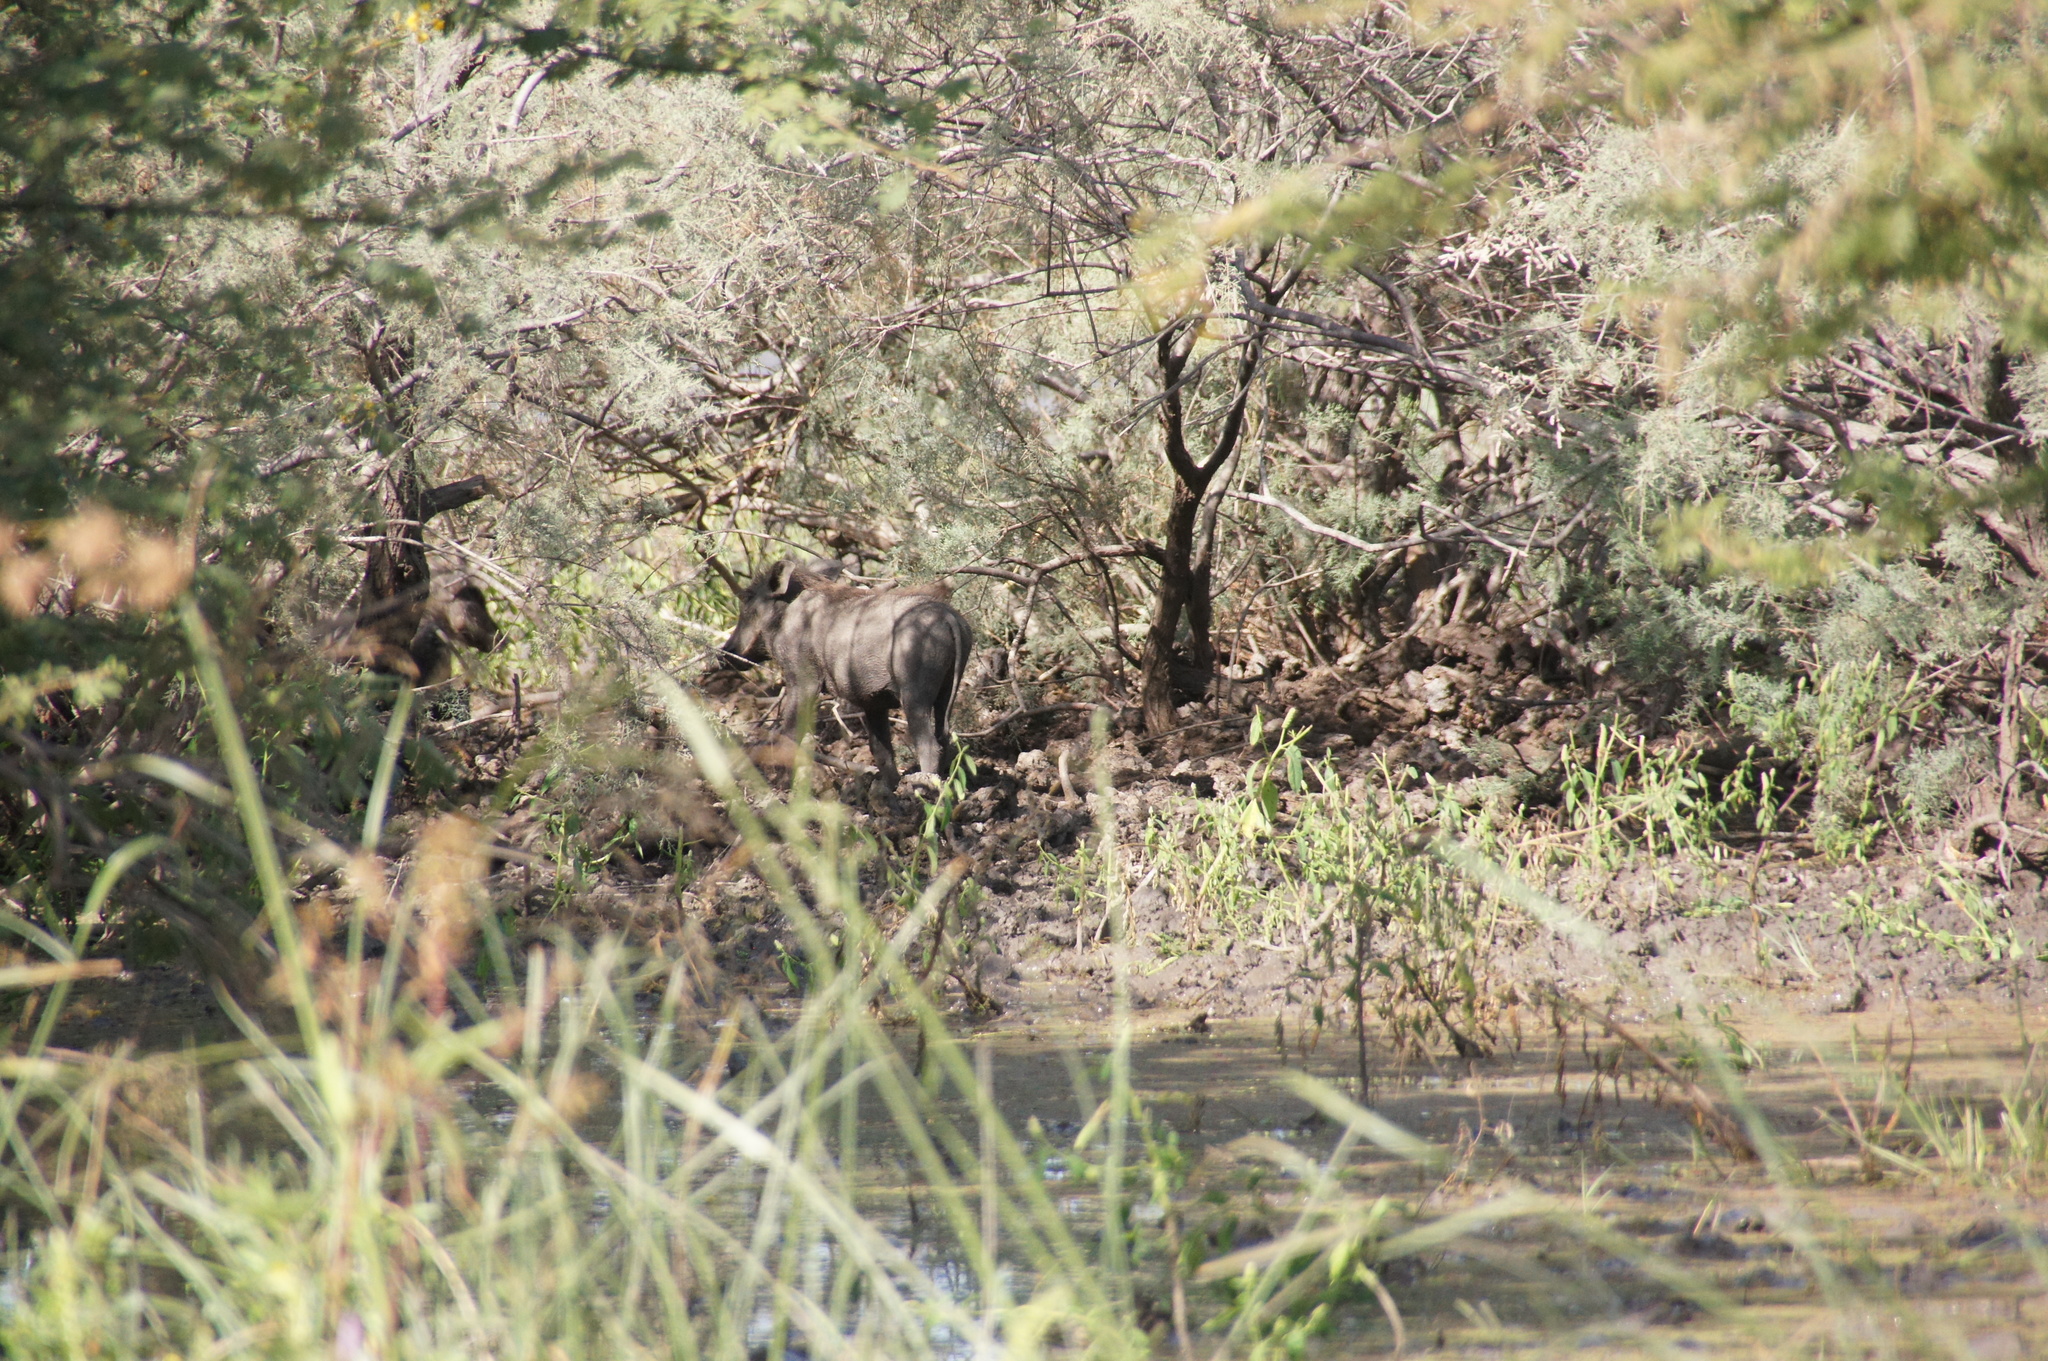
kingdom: Animalia
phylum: Chordata
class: Mammalia
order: Artiodactyla
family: Suidae
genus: Phacochoerus
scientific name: Phacochoerus africanus
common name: Common warthog
